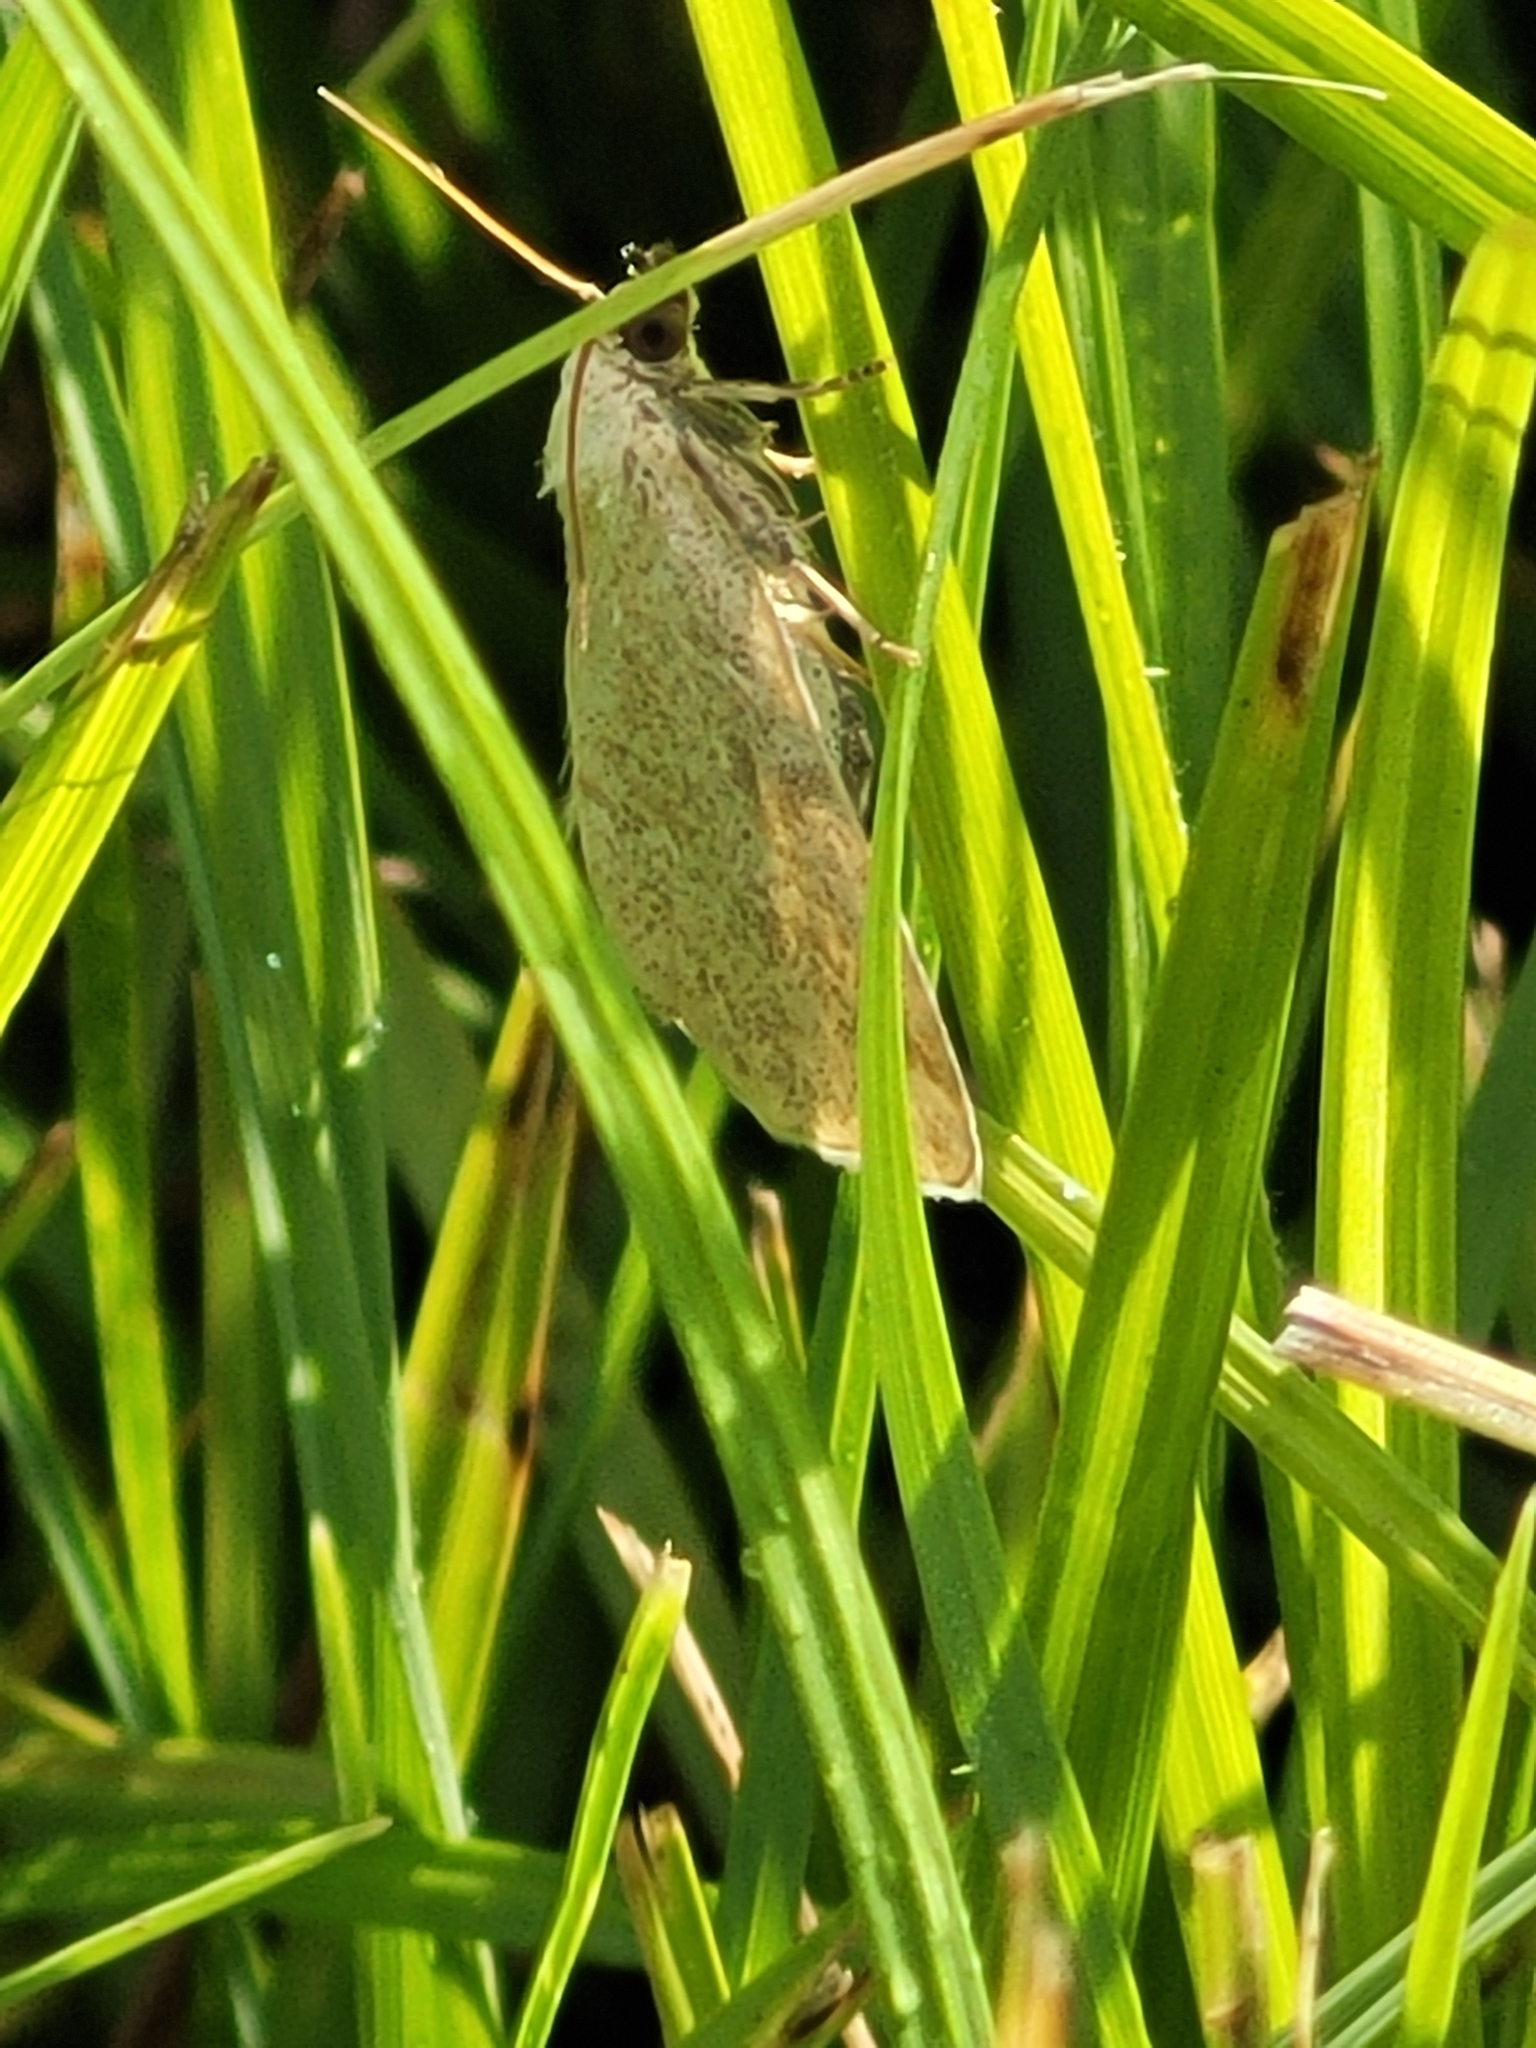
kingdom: Animalia
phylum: Arthropoda
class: Insecta
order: Lepidoptera
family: Noctuidae
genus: Protodeltote
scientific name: Protodeltote albidula
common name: Pale glyph
